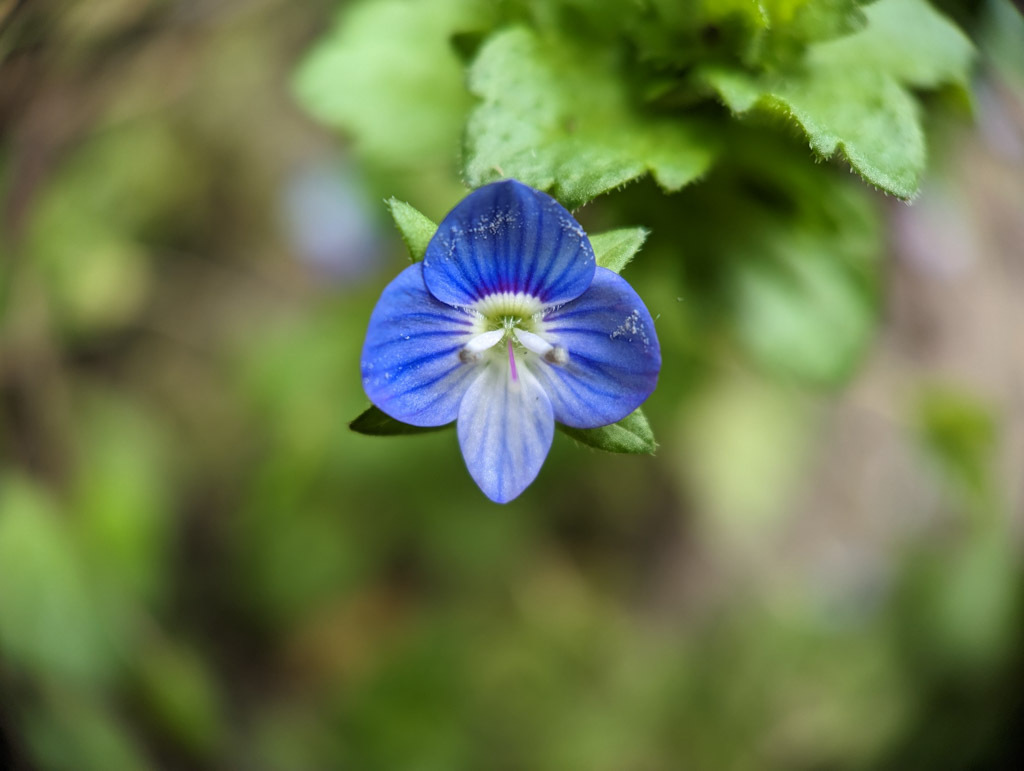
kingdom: Plantae
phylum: Tracheophyta
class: Magnoliopsida
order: Lamiales
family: Plantaginaceae
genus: Veronica
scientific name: Veronica persica
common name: Common field-speedwell
